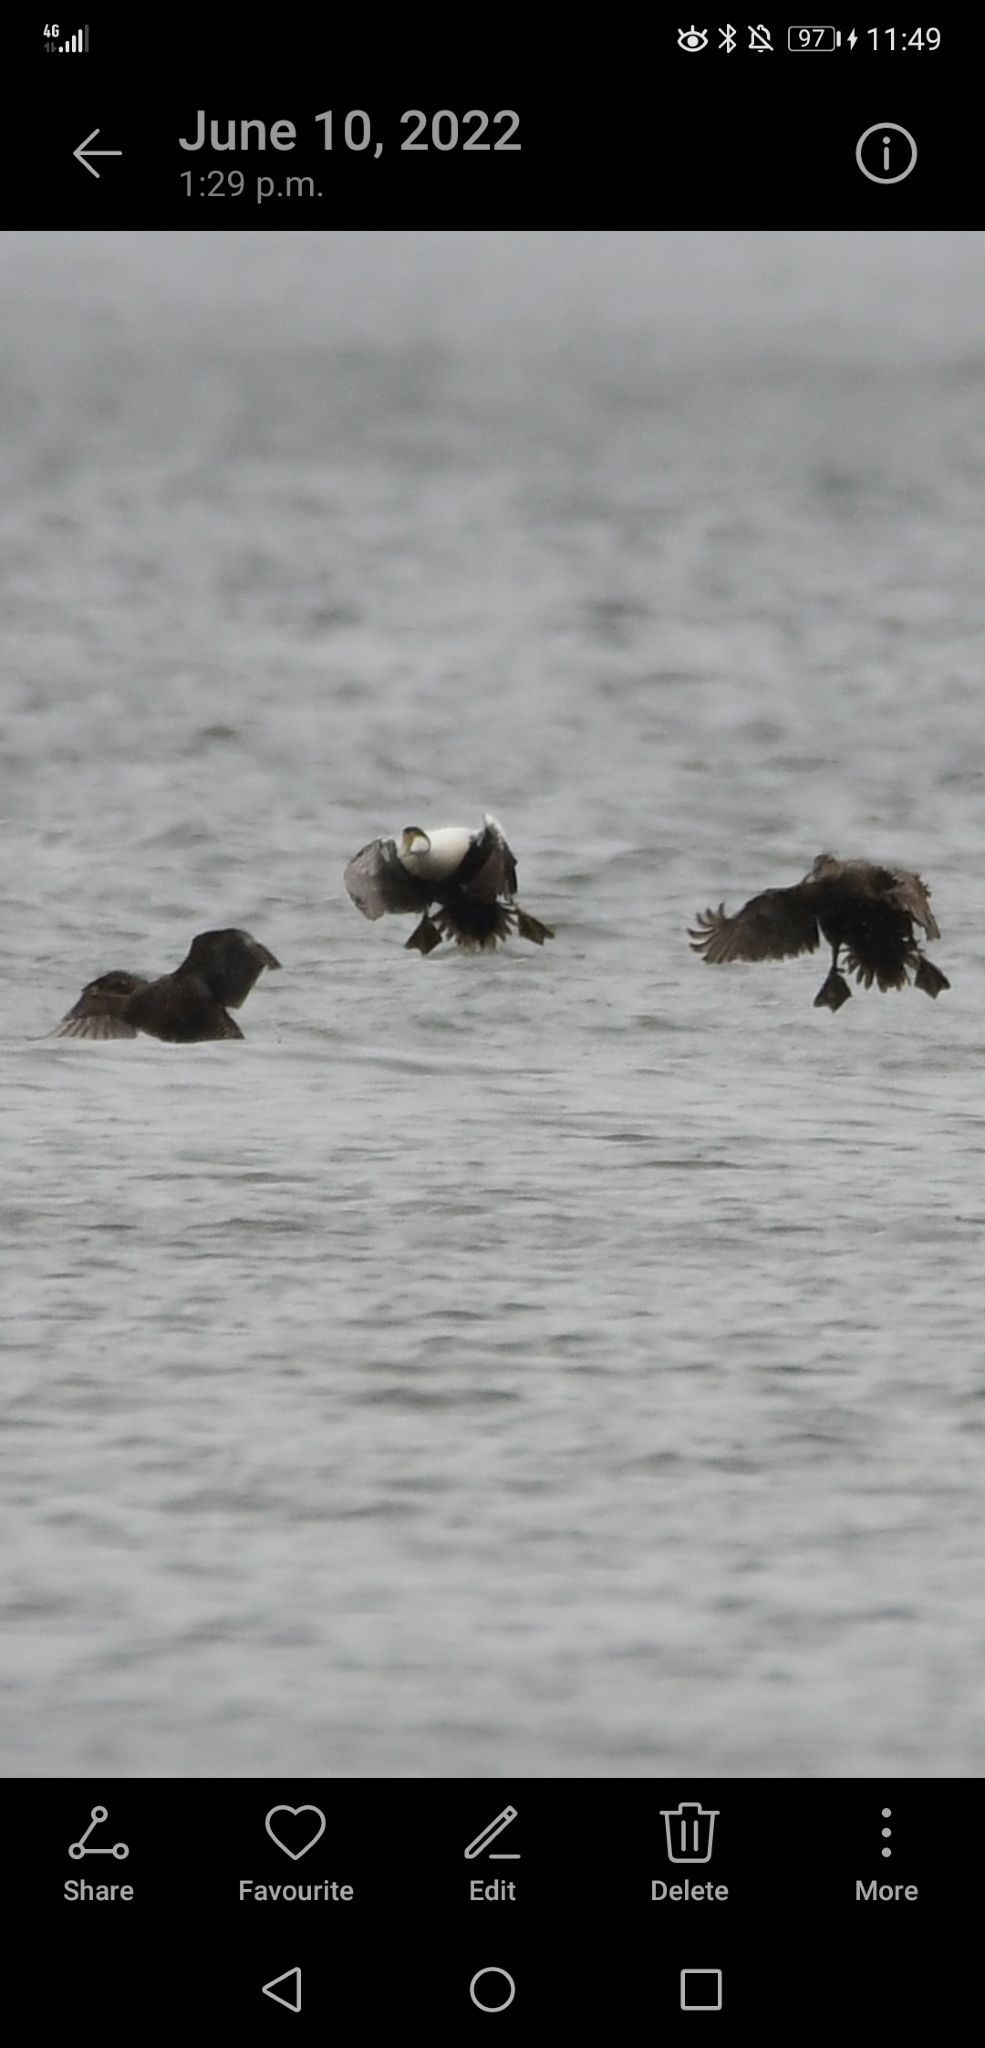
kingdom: Animalia
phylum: Chordata
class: Aves
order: Anseriformes
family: Anatidae
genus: Somateria
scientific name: Somateria mollissima
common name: Common eider
